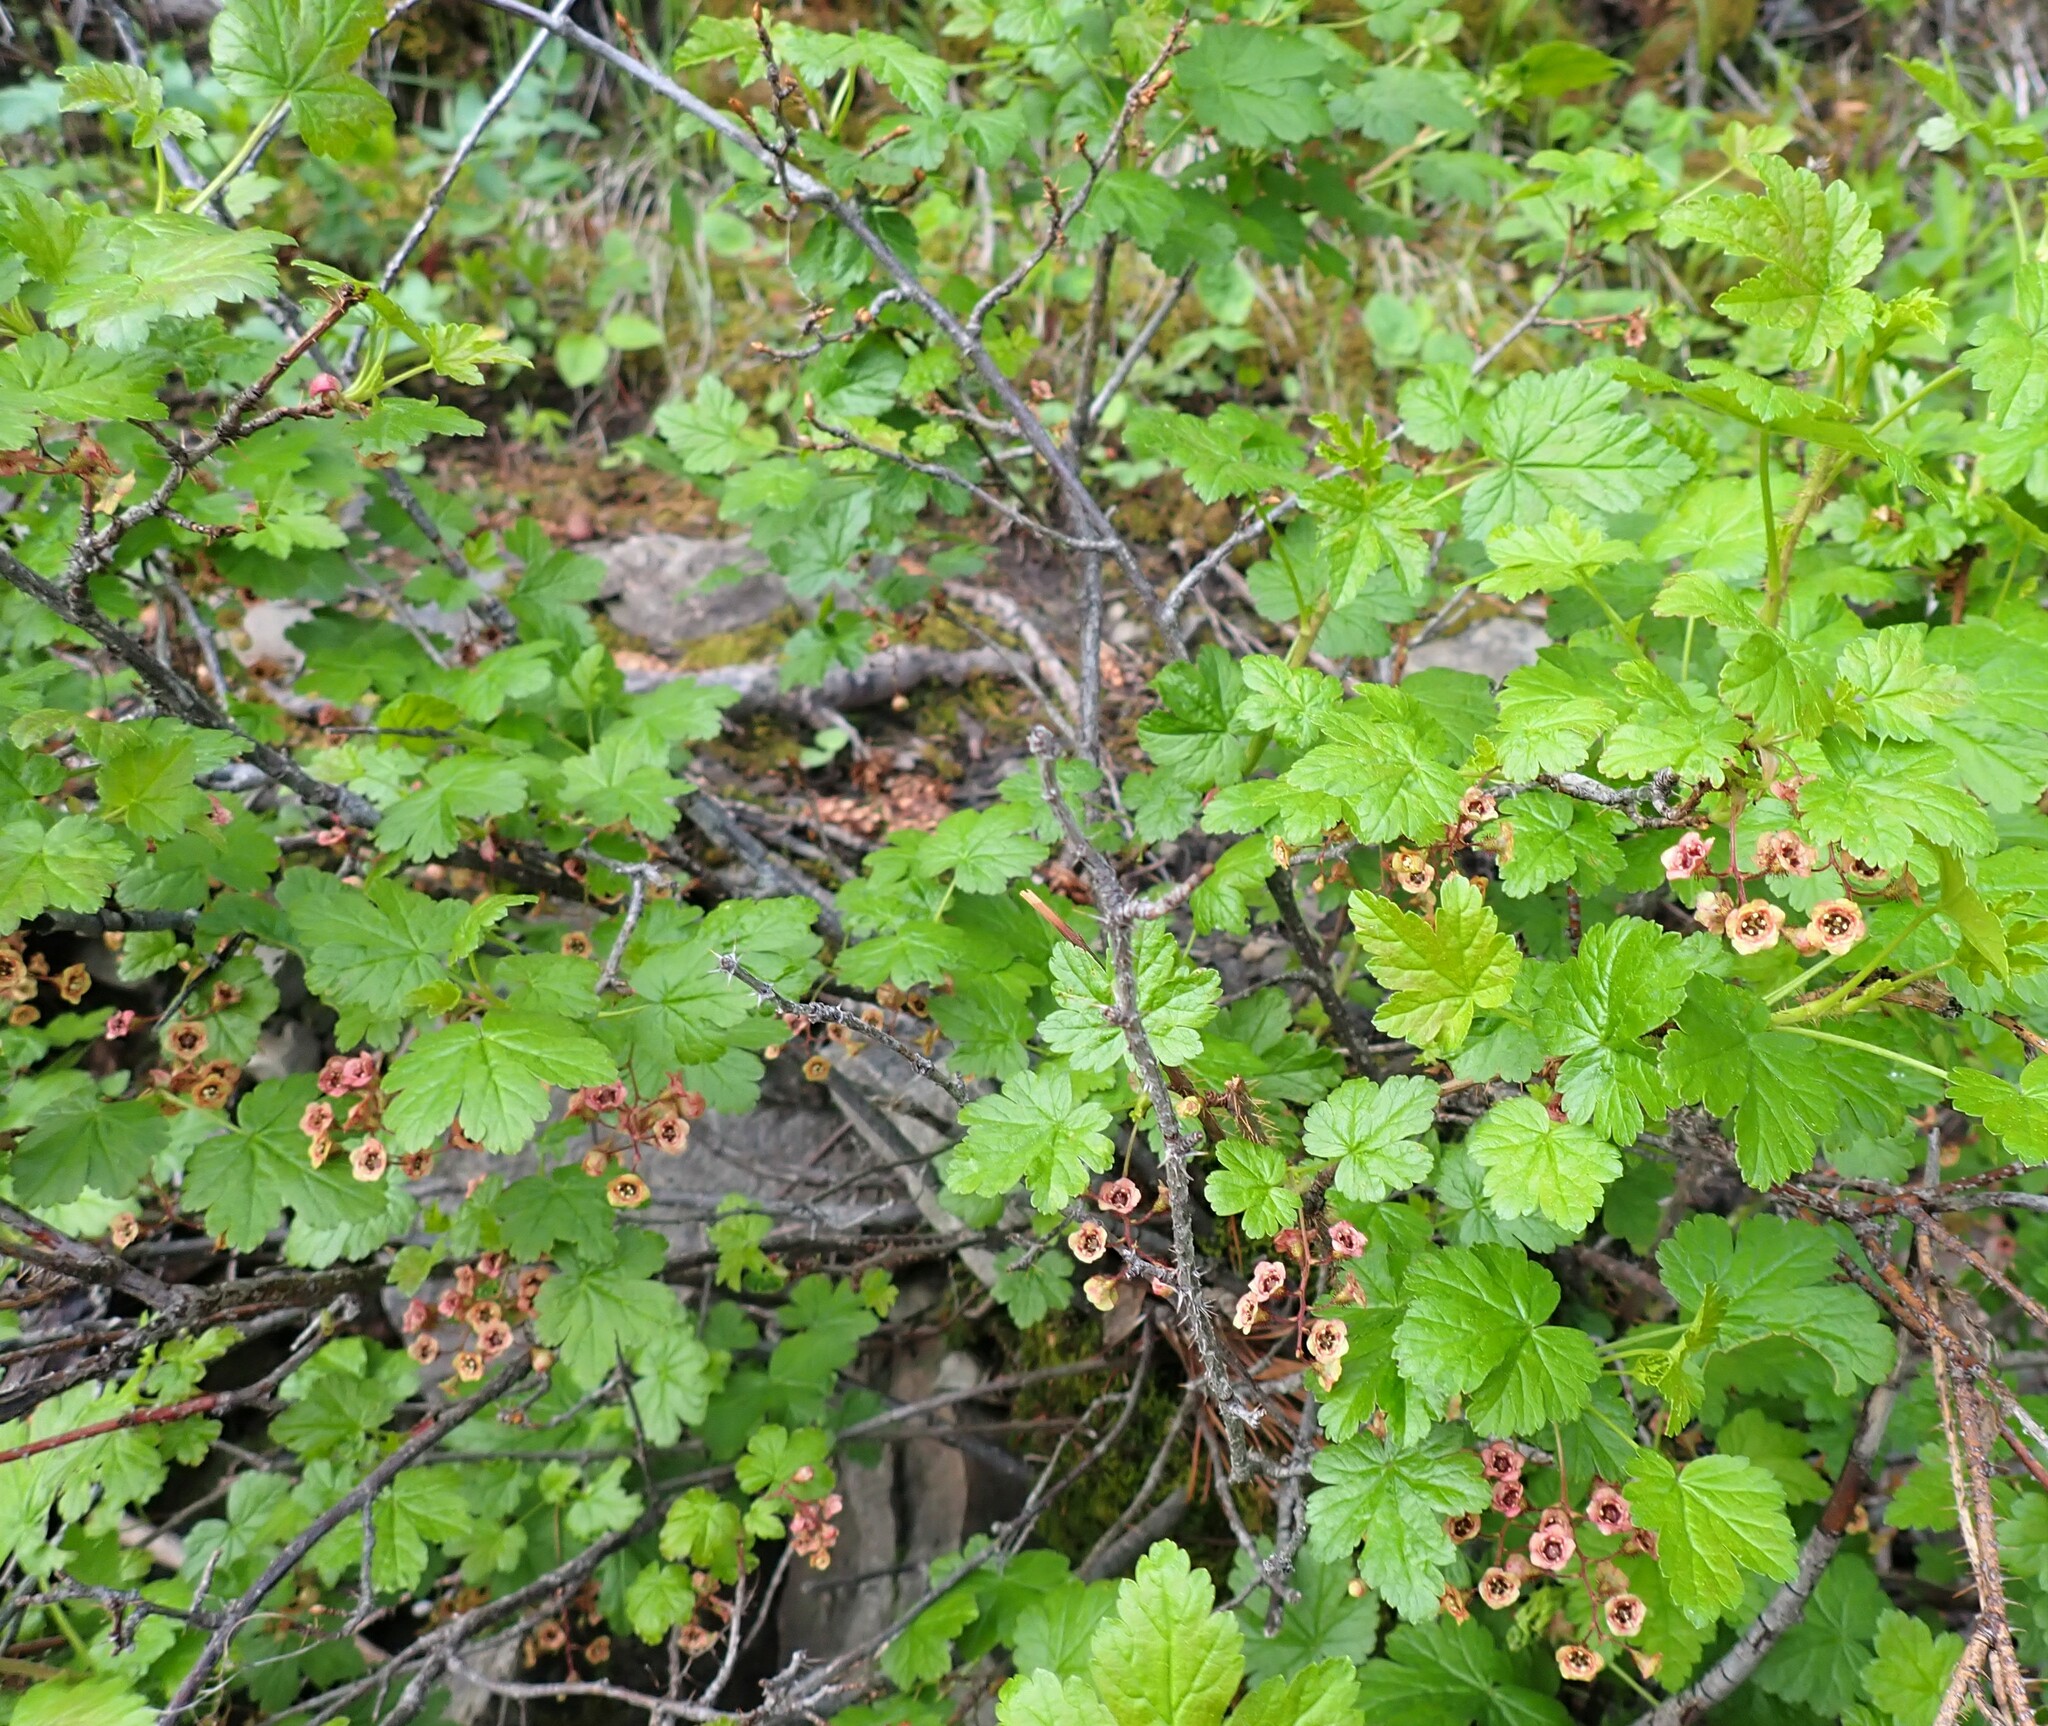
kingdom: Plantae
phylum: Tracheophyta
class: Magnoliopsida
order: Saxifragales
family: Grossulariaceae
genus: Ribes
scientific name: Ribes lacustre
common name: Black gooseberry
